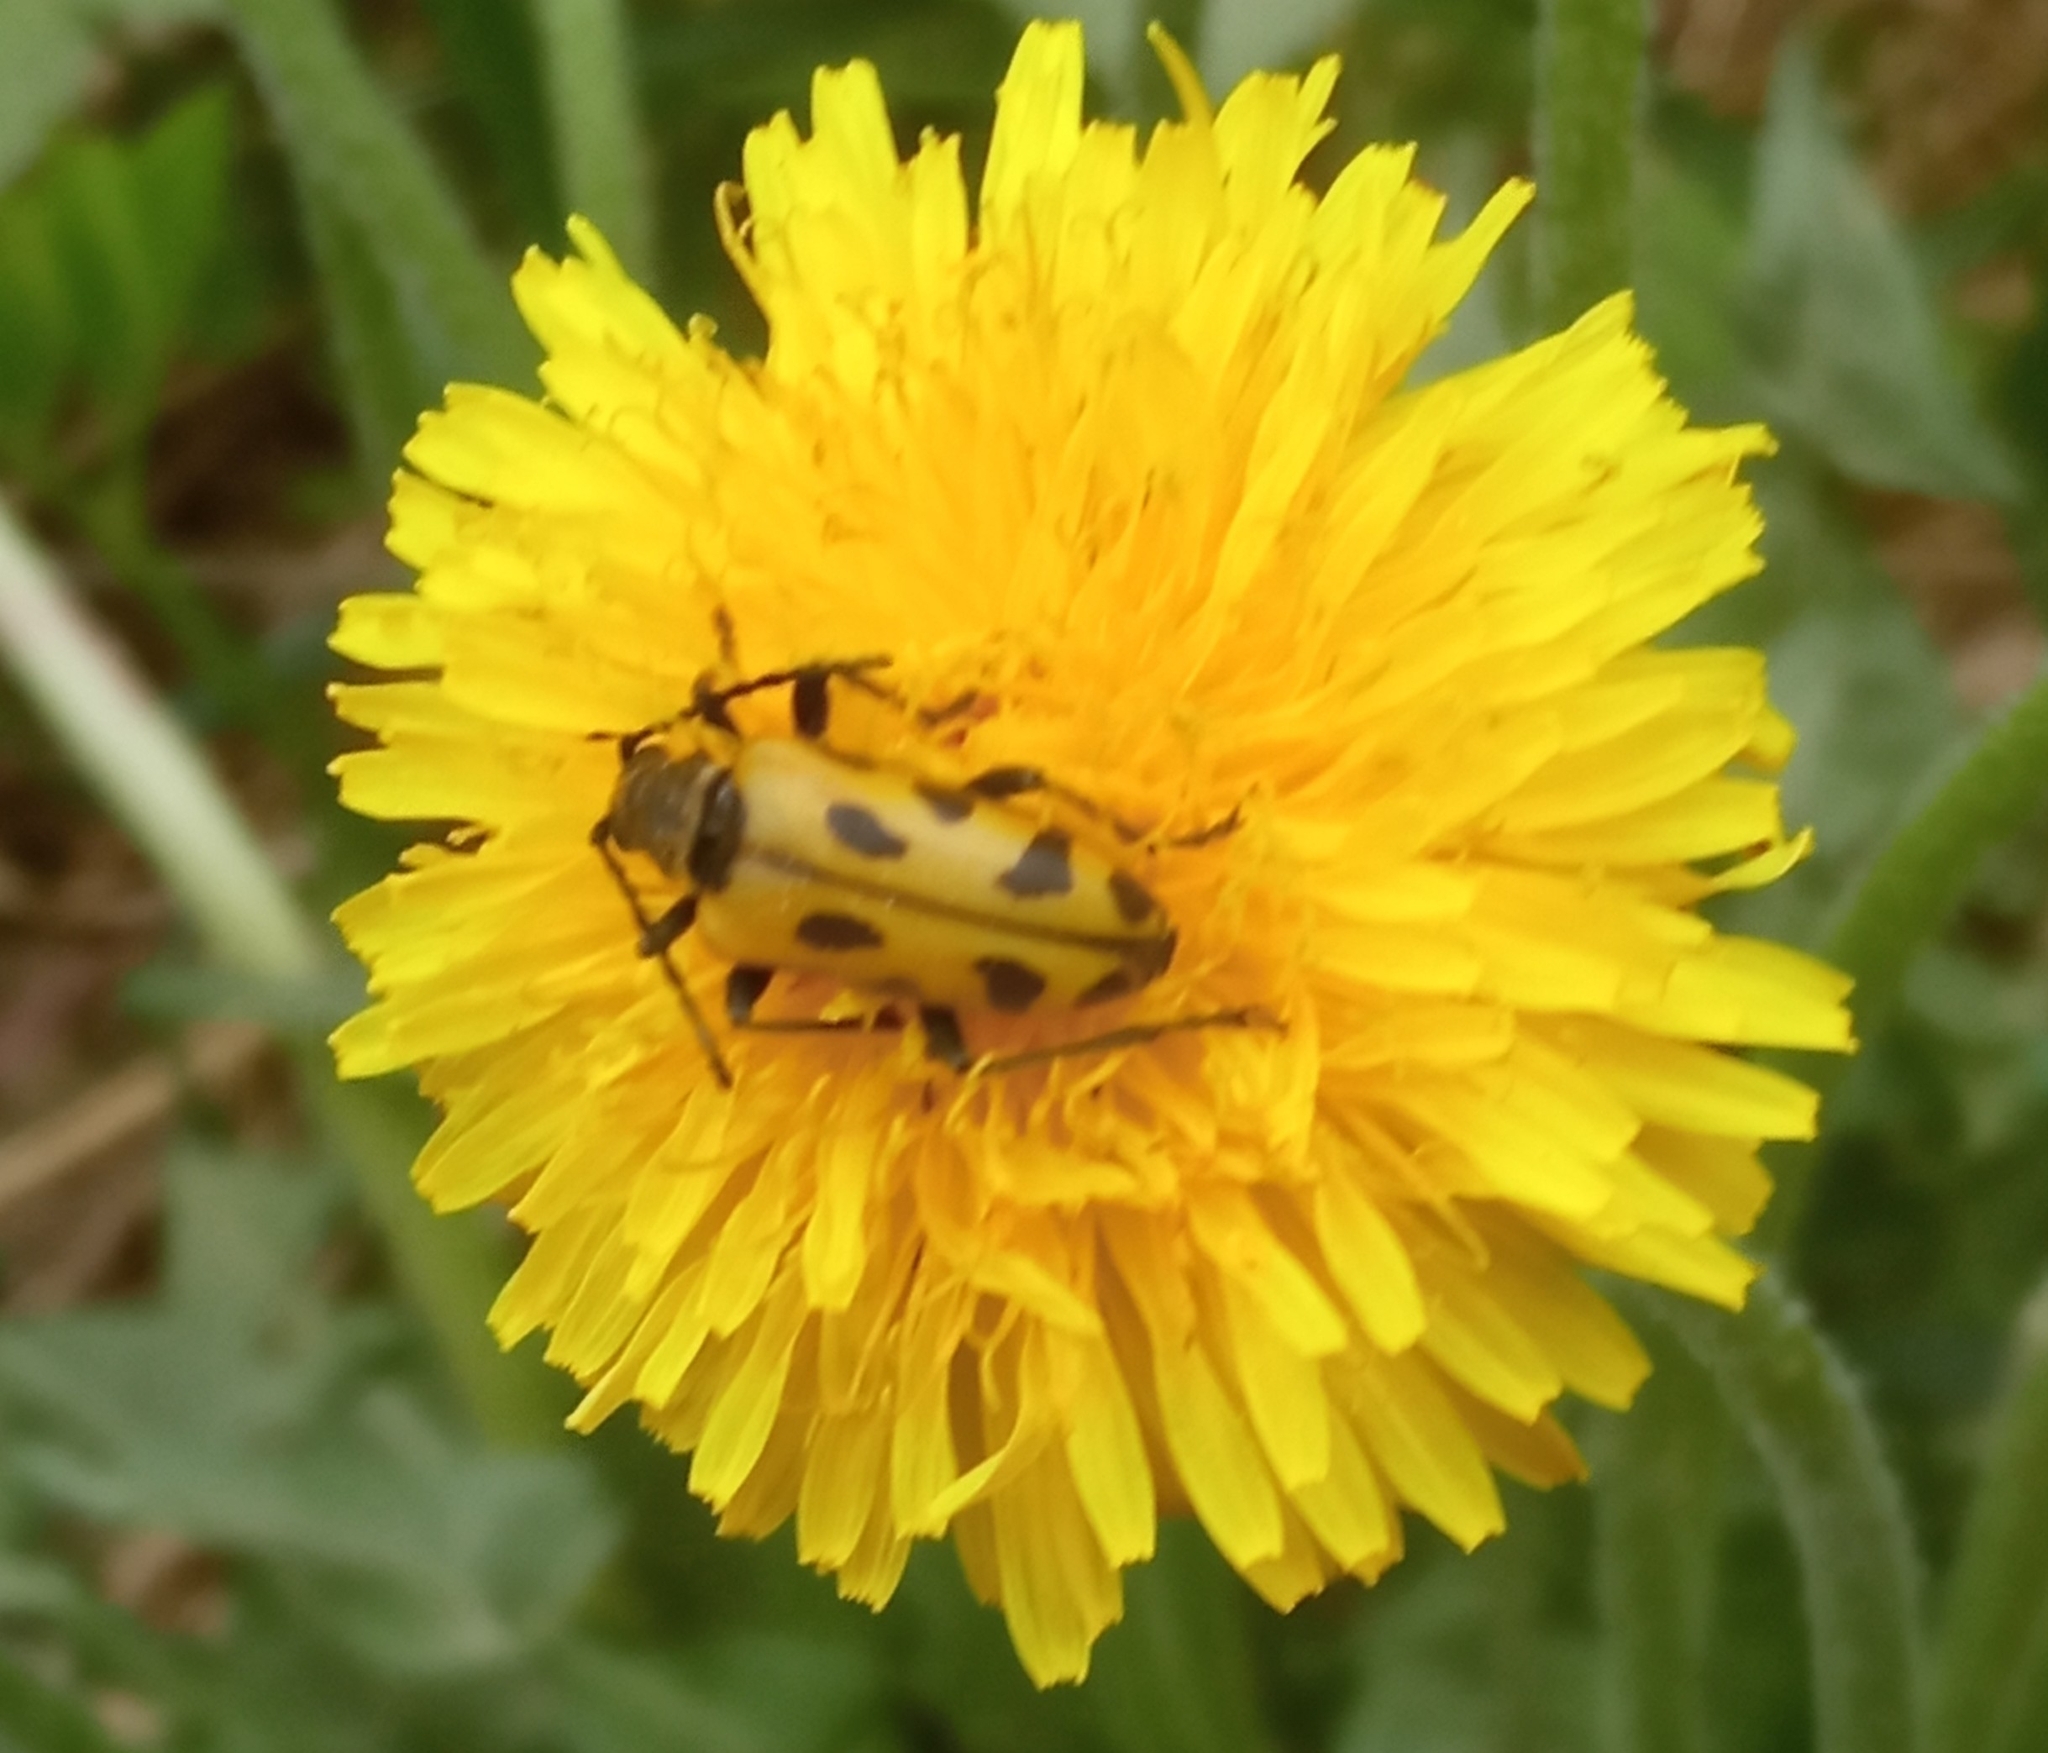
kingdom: Animalia
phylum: Arthropoda
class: Insecta
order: Coleoptera
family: Cerambycidae
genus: Brachyta
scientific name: Brachyta interrogationis
